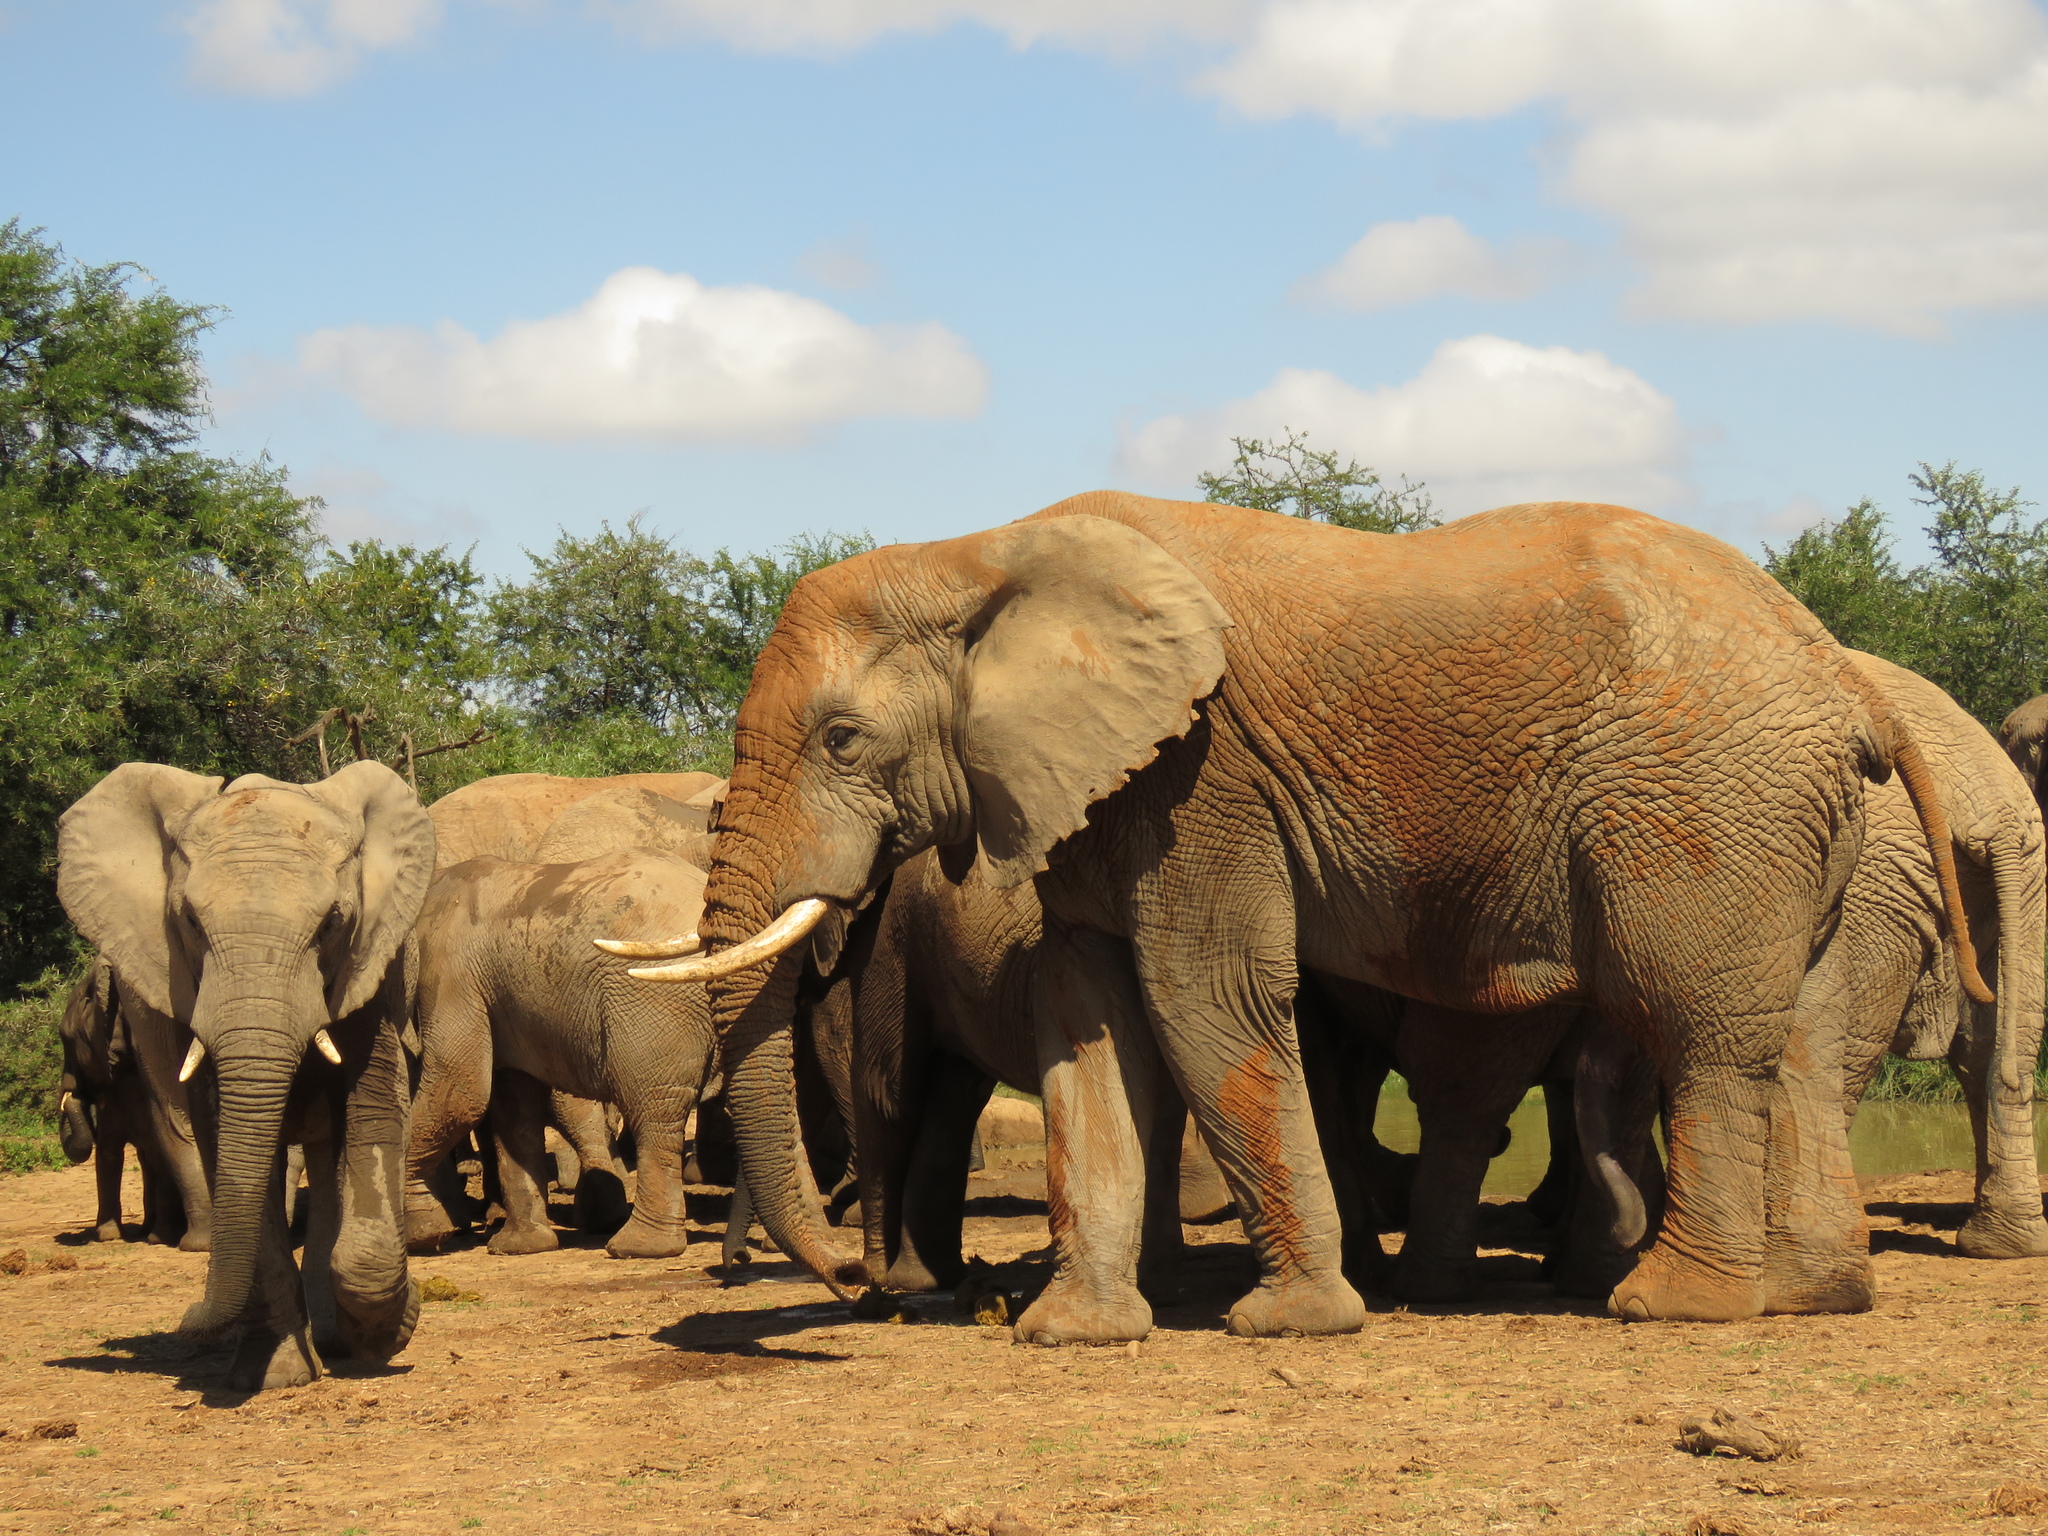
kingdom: Animalia
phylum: Chordata
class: Mammalia
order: Proboscidea
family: Elephantidae
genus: Loxodonta
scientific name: Loxodonta africana
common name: African elephant
